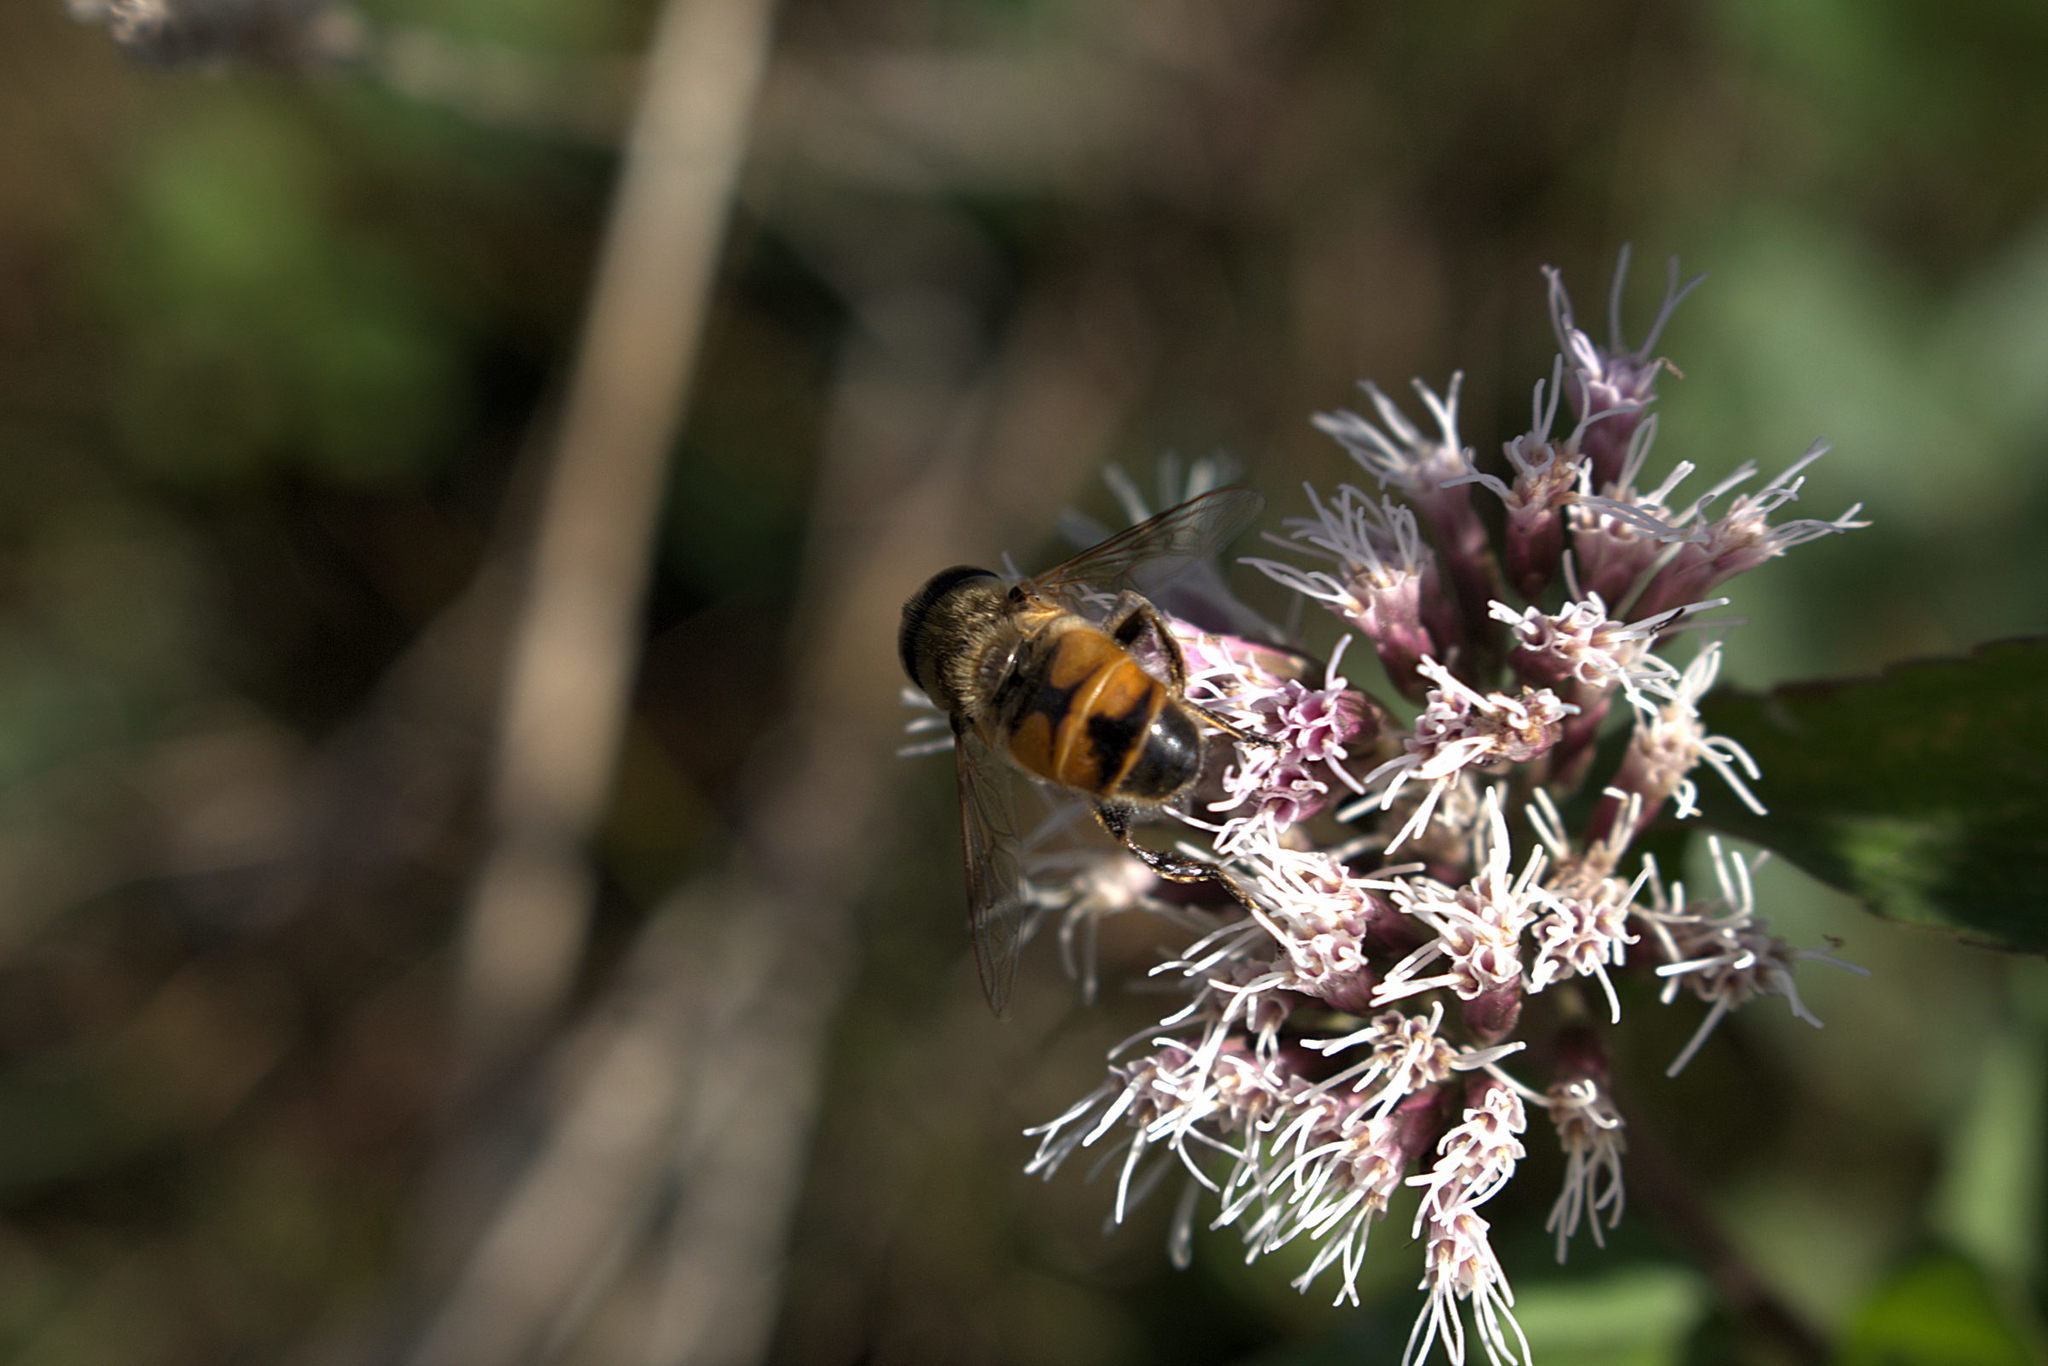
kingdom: Animalia
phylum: Arthropoda
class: Insecta
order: Lepidoptera
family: Nymphalidae
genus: Aglais
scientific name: Aglais io
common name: Peacock
